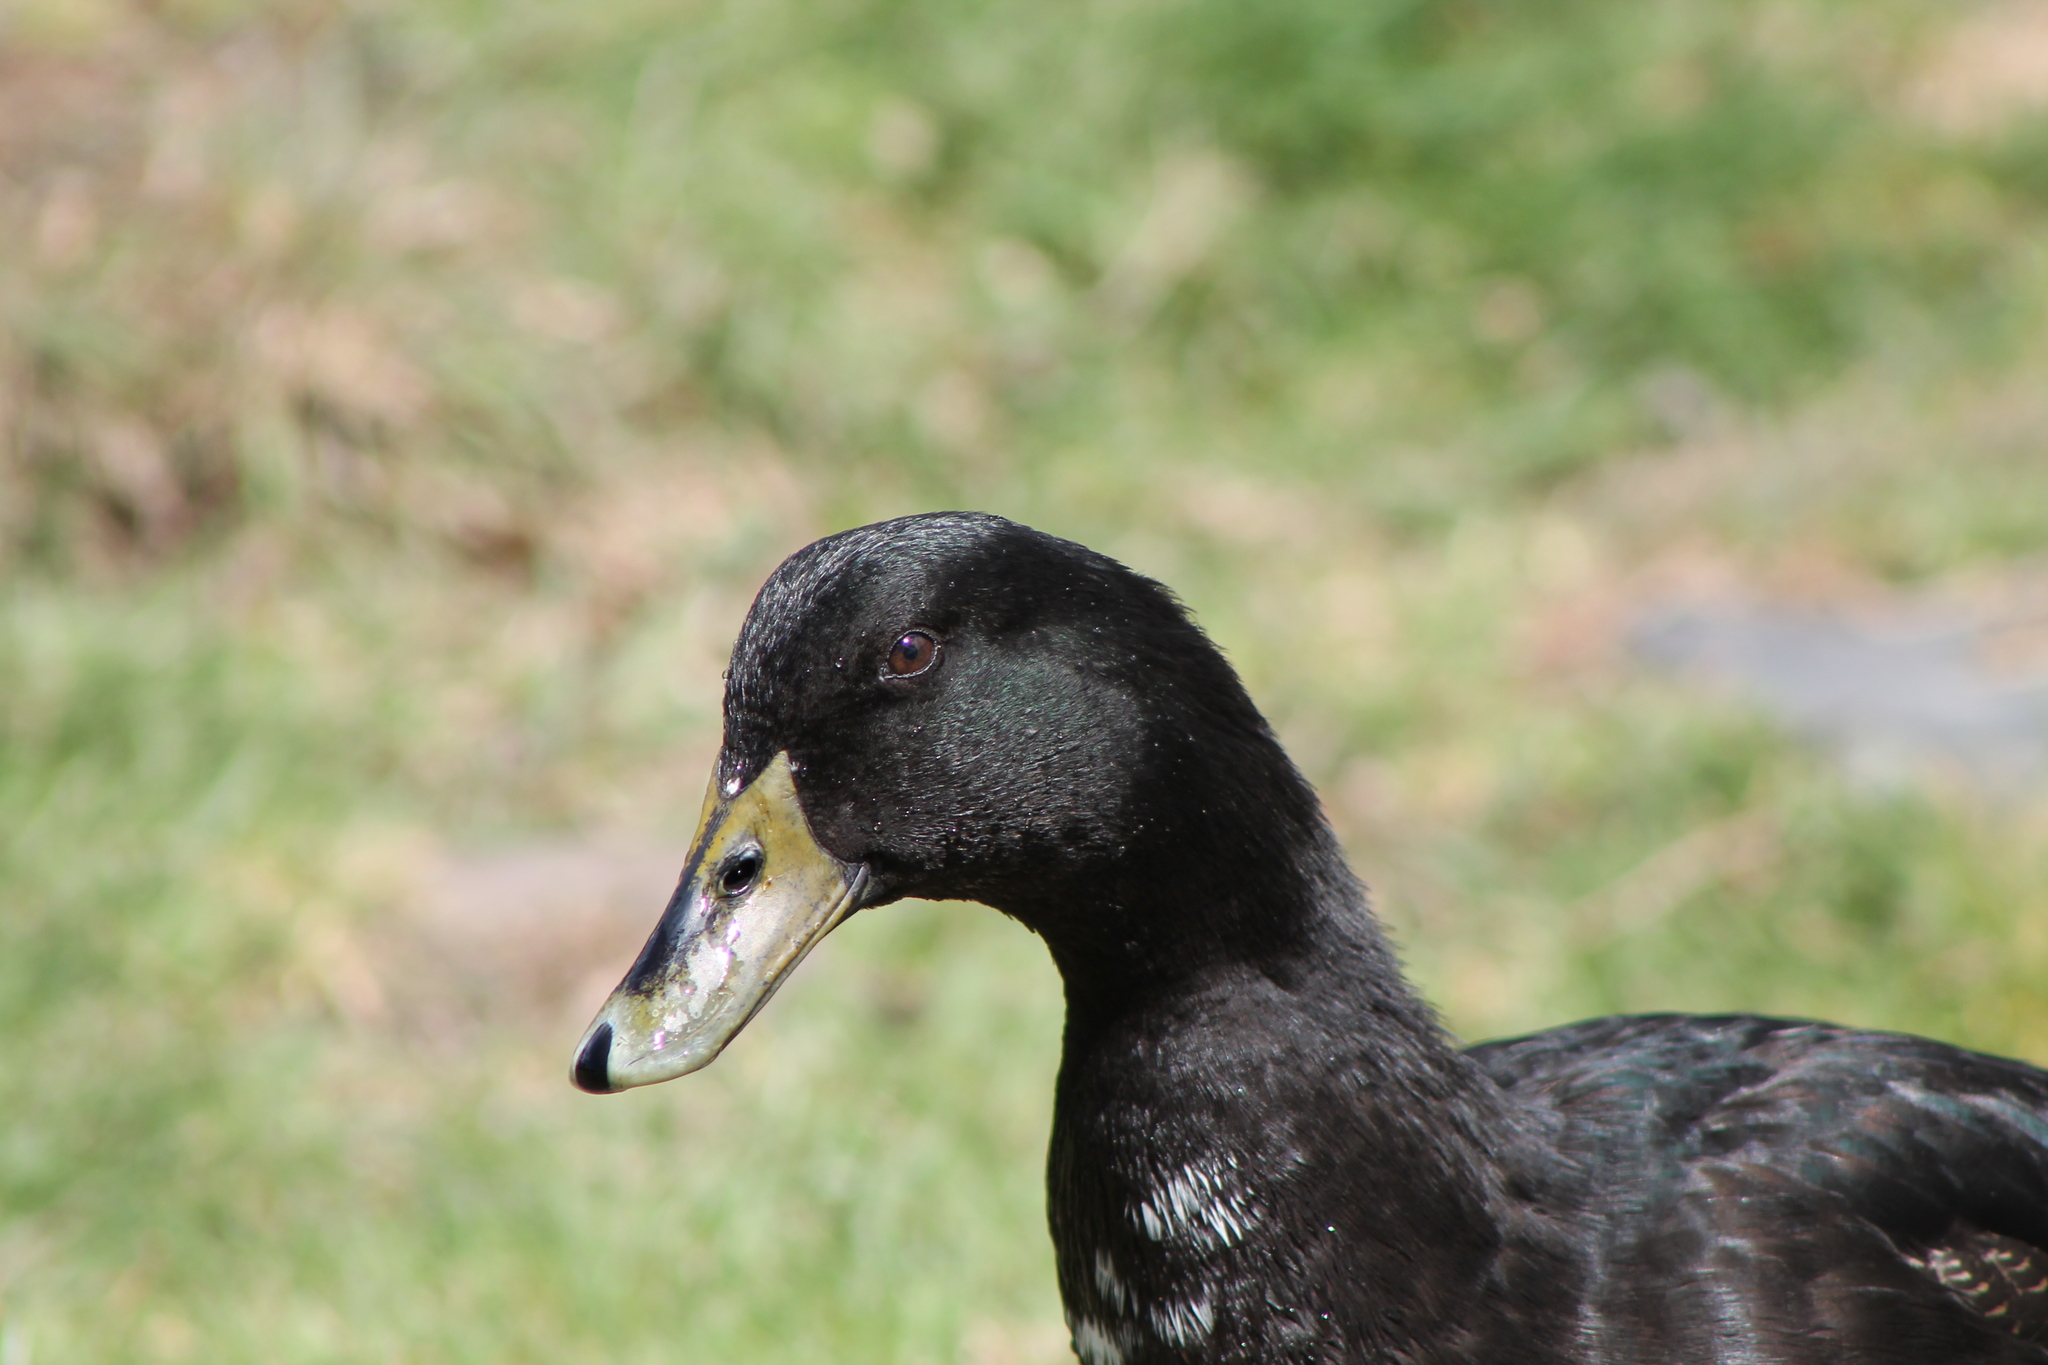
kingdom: Animalia
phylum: Chordata
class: Aves
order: Anseriformes
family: Anatidae
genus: Anas
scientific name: Anas platyrhynchos
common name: Mallard
